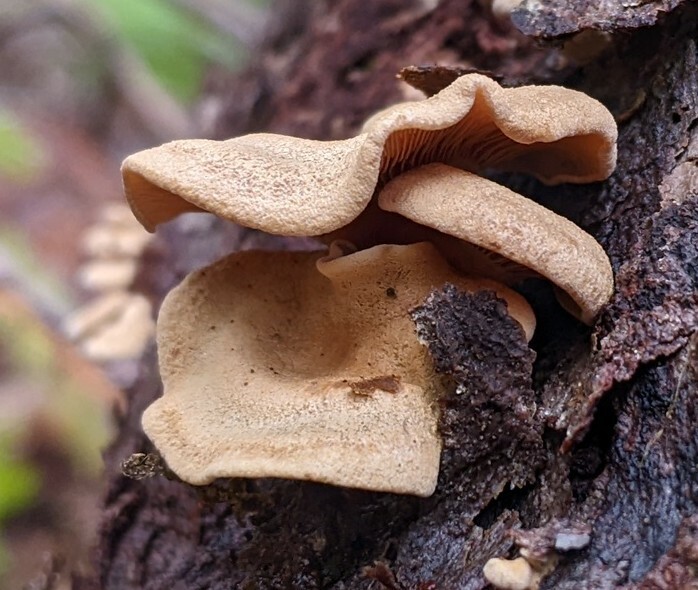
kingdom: Fungi
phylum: Basidiomycota
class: Agaricomycetes
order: Agaricales
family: Mycenaceae
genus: Panellus
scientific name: Panellus stipticus
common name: Bitter oysterling
